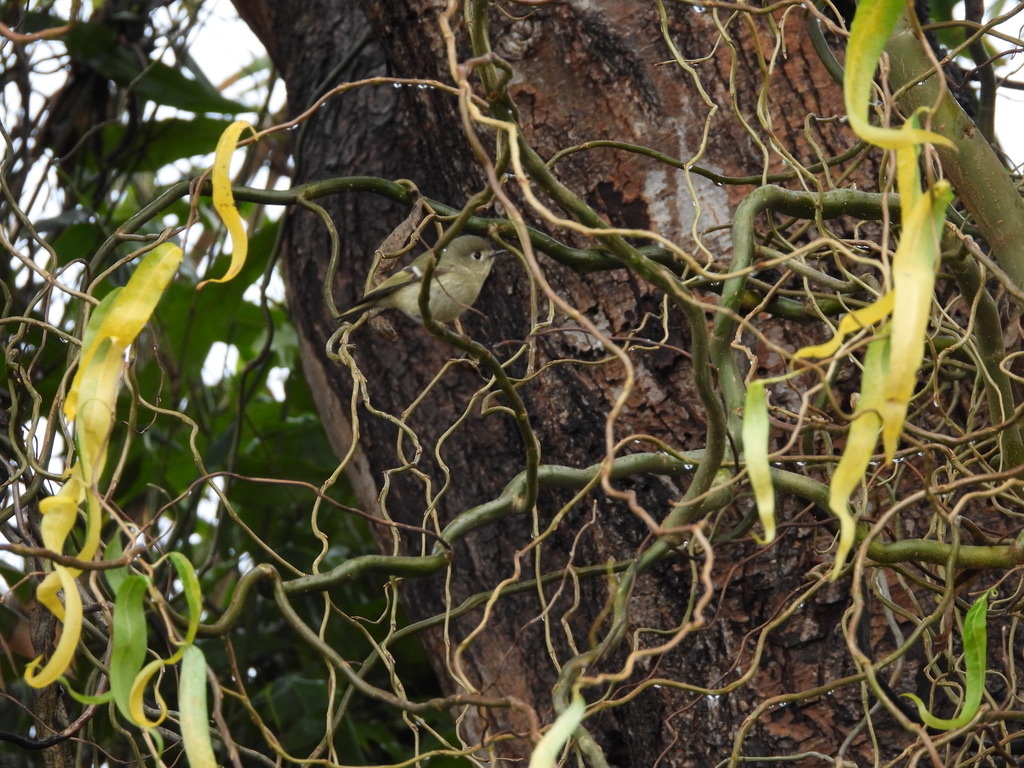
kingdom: Animalia
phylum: Chordata
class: Aves
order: Passeriformes
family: Regulidae
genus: Regulus
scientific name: Regulus calendula
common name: Ruby-crowned kinglet
